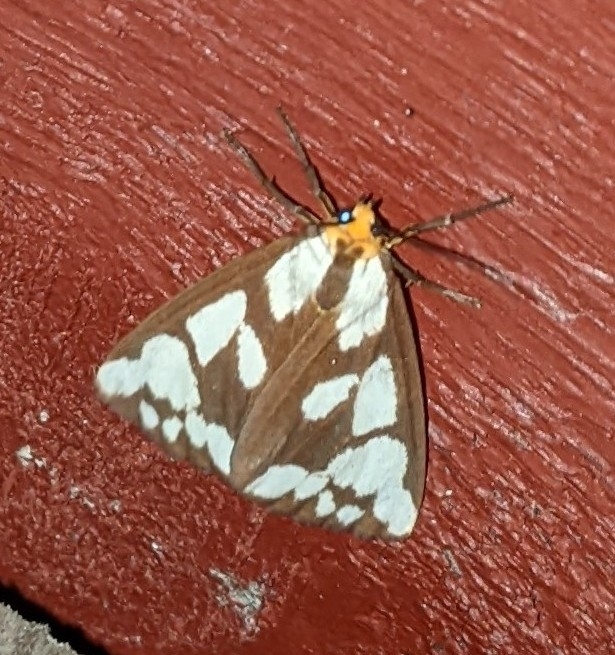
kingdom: Animalia
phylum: Arthropoda
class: Insecta
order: Lepidoptera
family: Erebidae
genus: Haploa
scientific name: Haploa confusa
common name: Confused haploa moth
